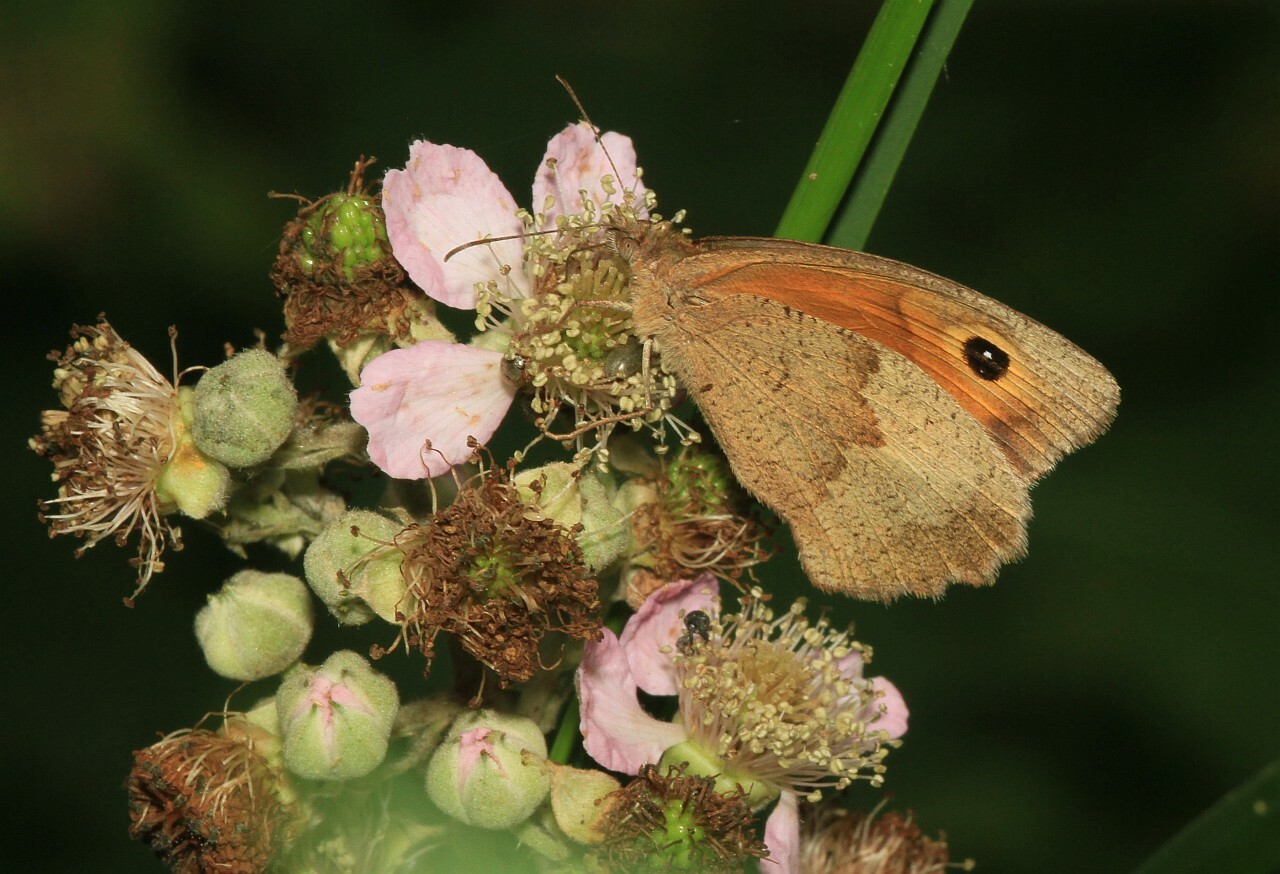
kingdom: Animalia
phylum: Arthropoda
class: Insecta
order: Lepidoptera
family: Nymphalidae
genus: Maniola
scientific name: Maniola jurtina
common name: Meadow brown
